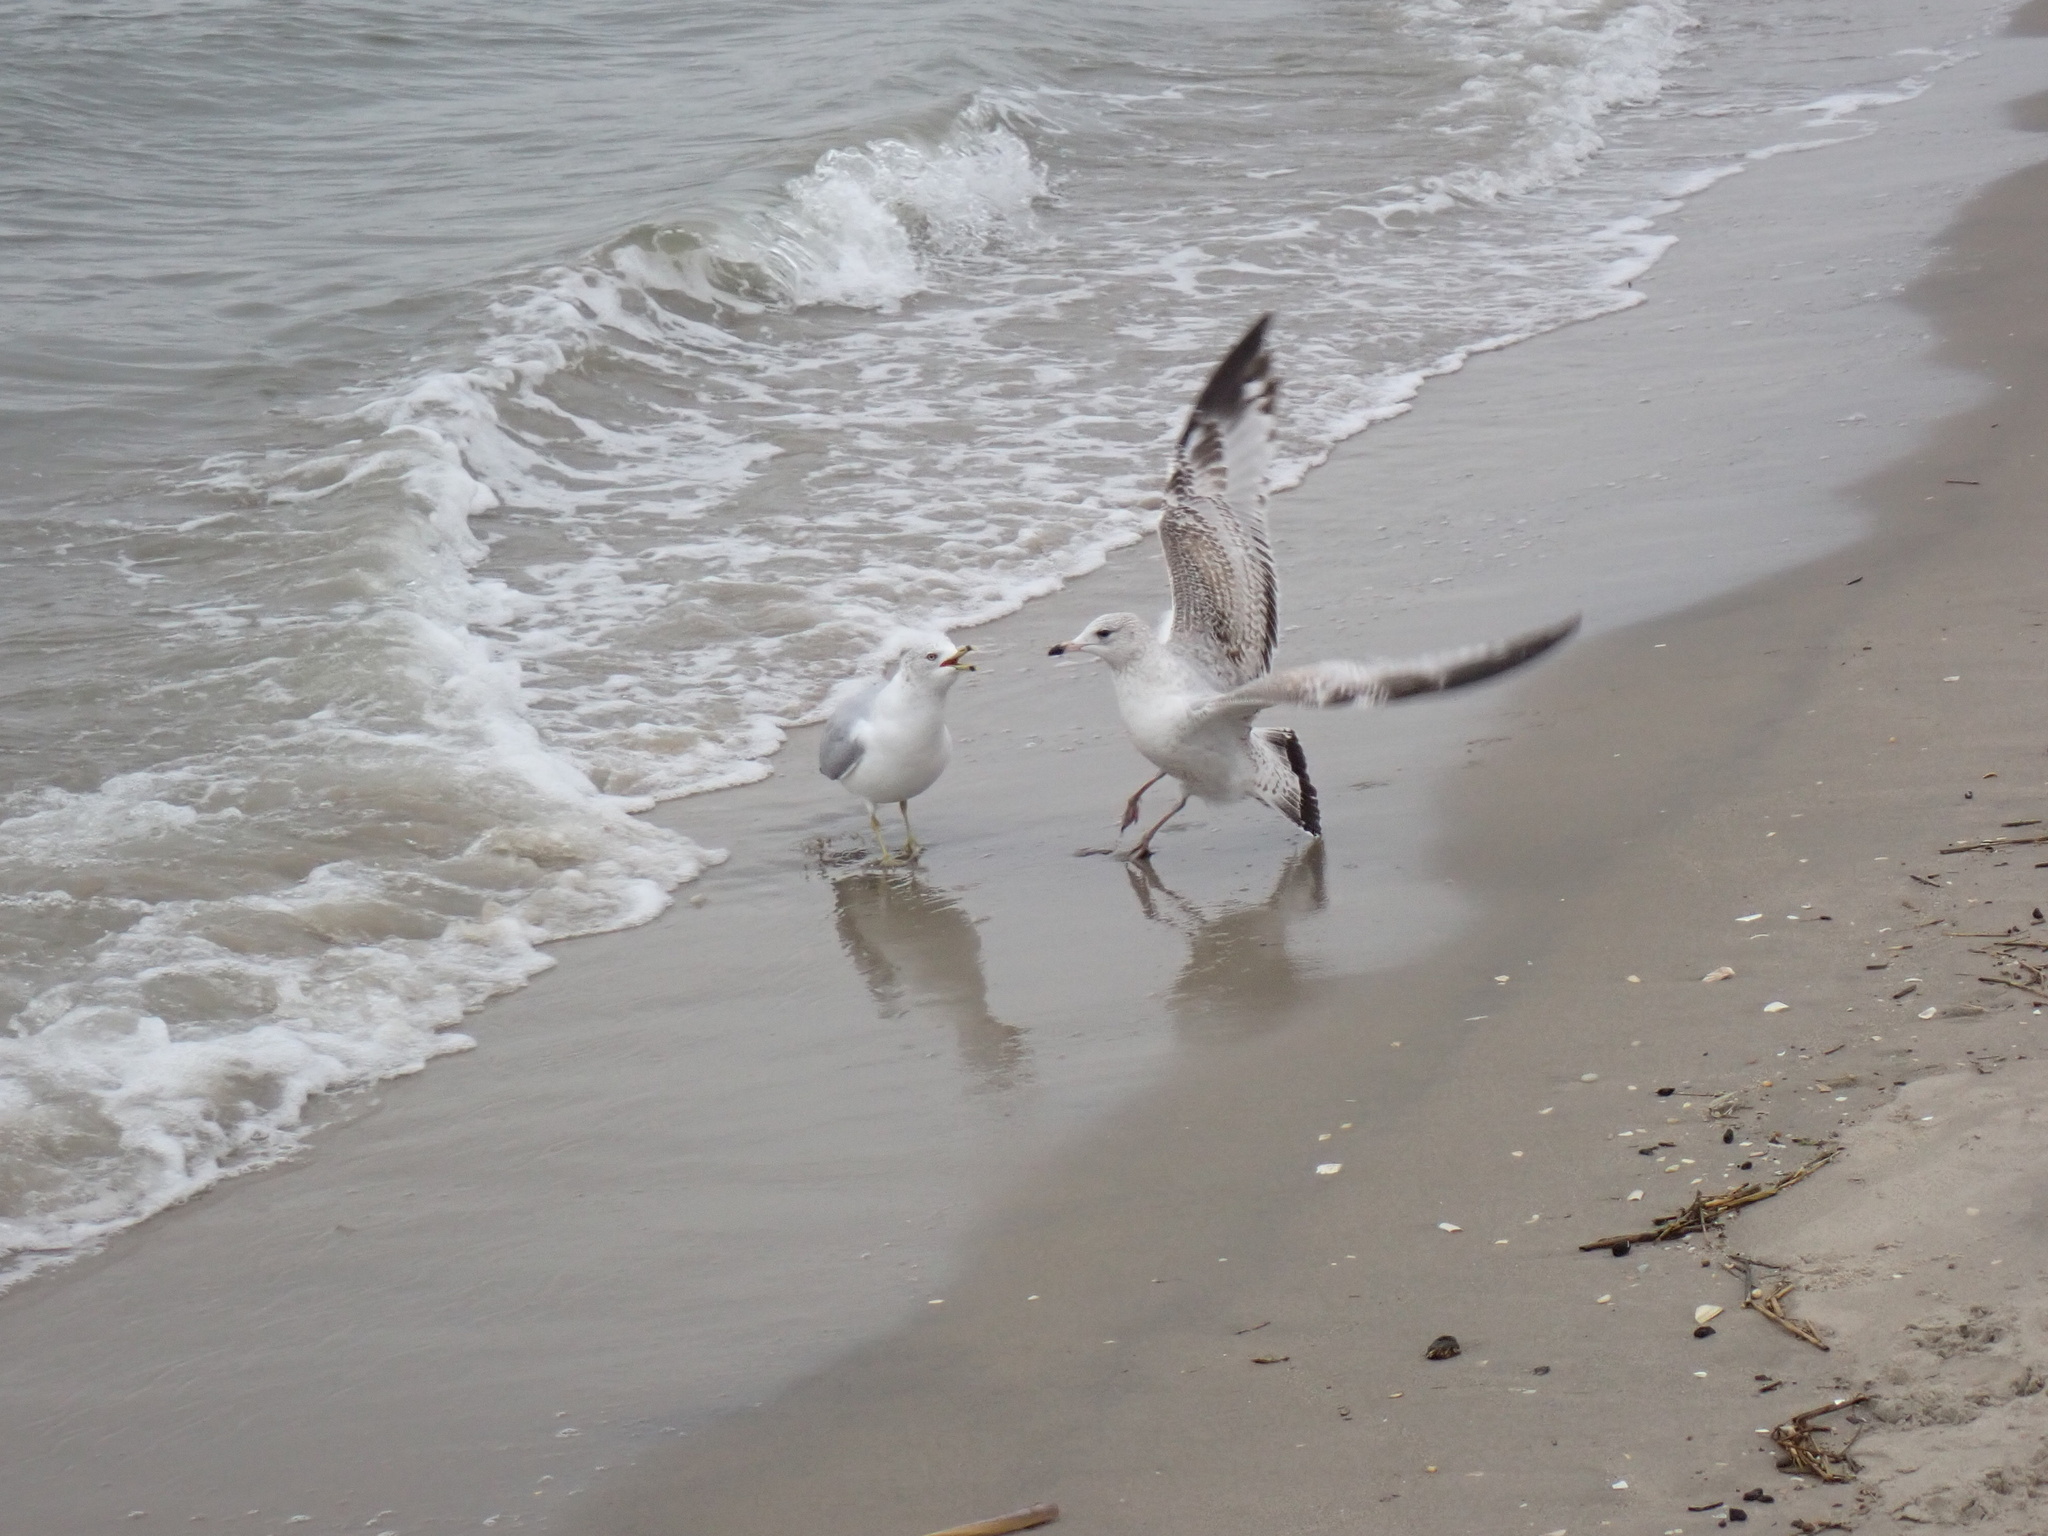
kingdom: Animalia
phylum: Chordata
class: Aves
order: Charadriiformes
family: Laridae
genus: Larus
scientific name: Larus delawarensis
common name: Ring-billed gull
